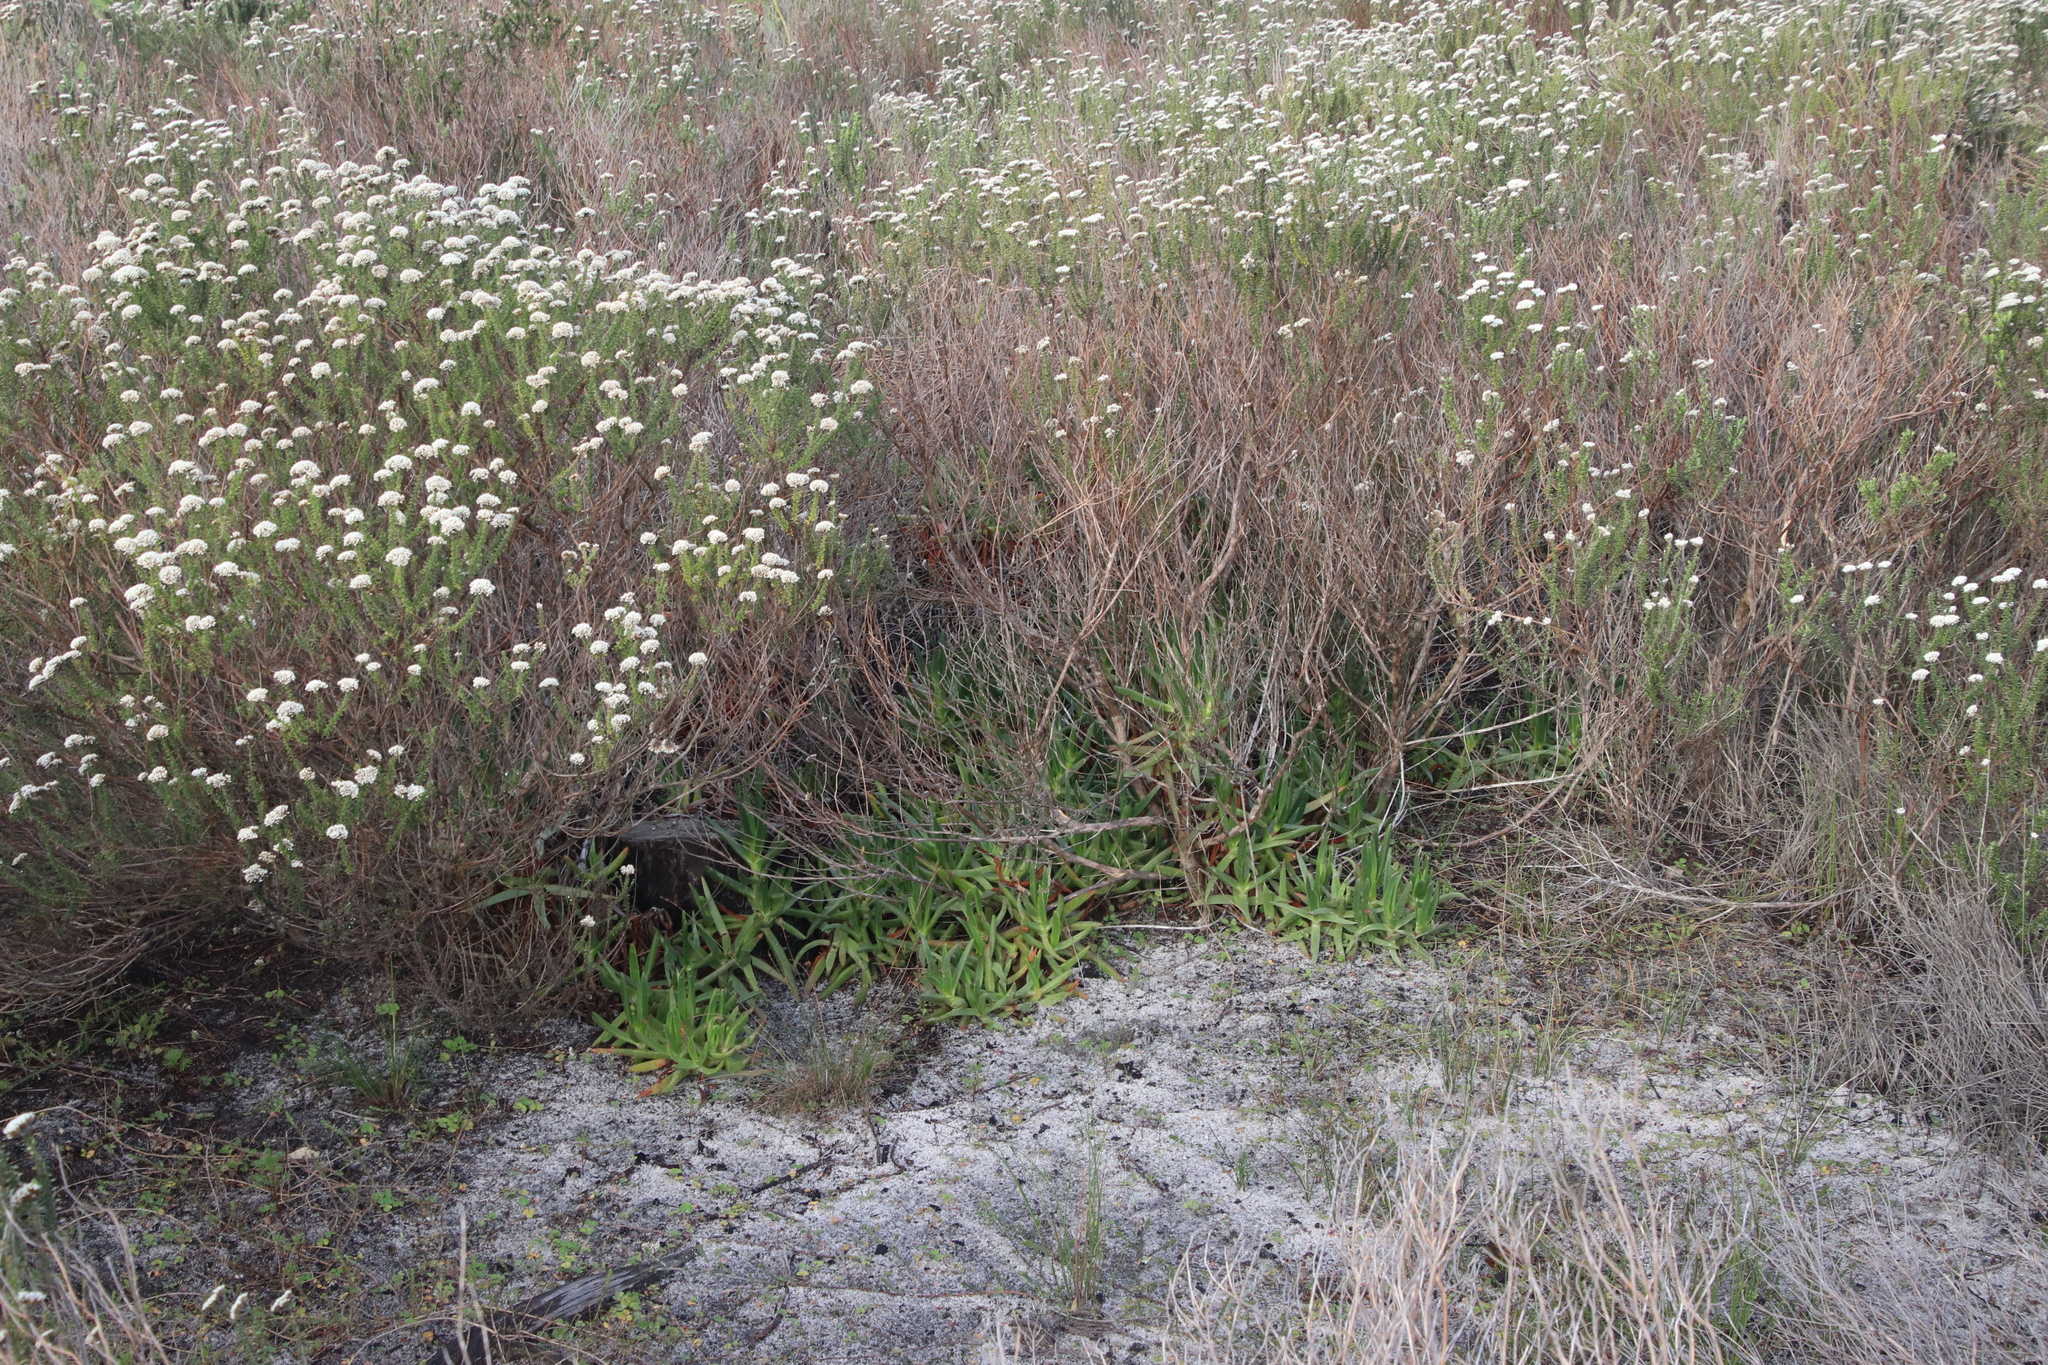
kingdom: Plantae
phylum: Tracheophyta
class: Magnoliopsida
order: Caryophyllales
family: Aizoaceae
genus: Carpobrotus
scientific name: Carpobrotus edulis
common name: Hottentot-fig
